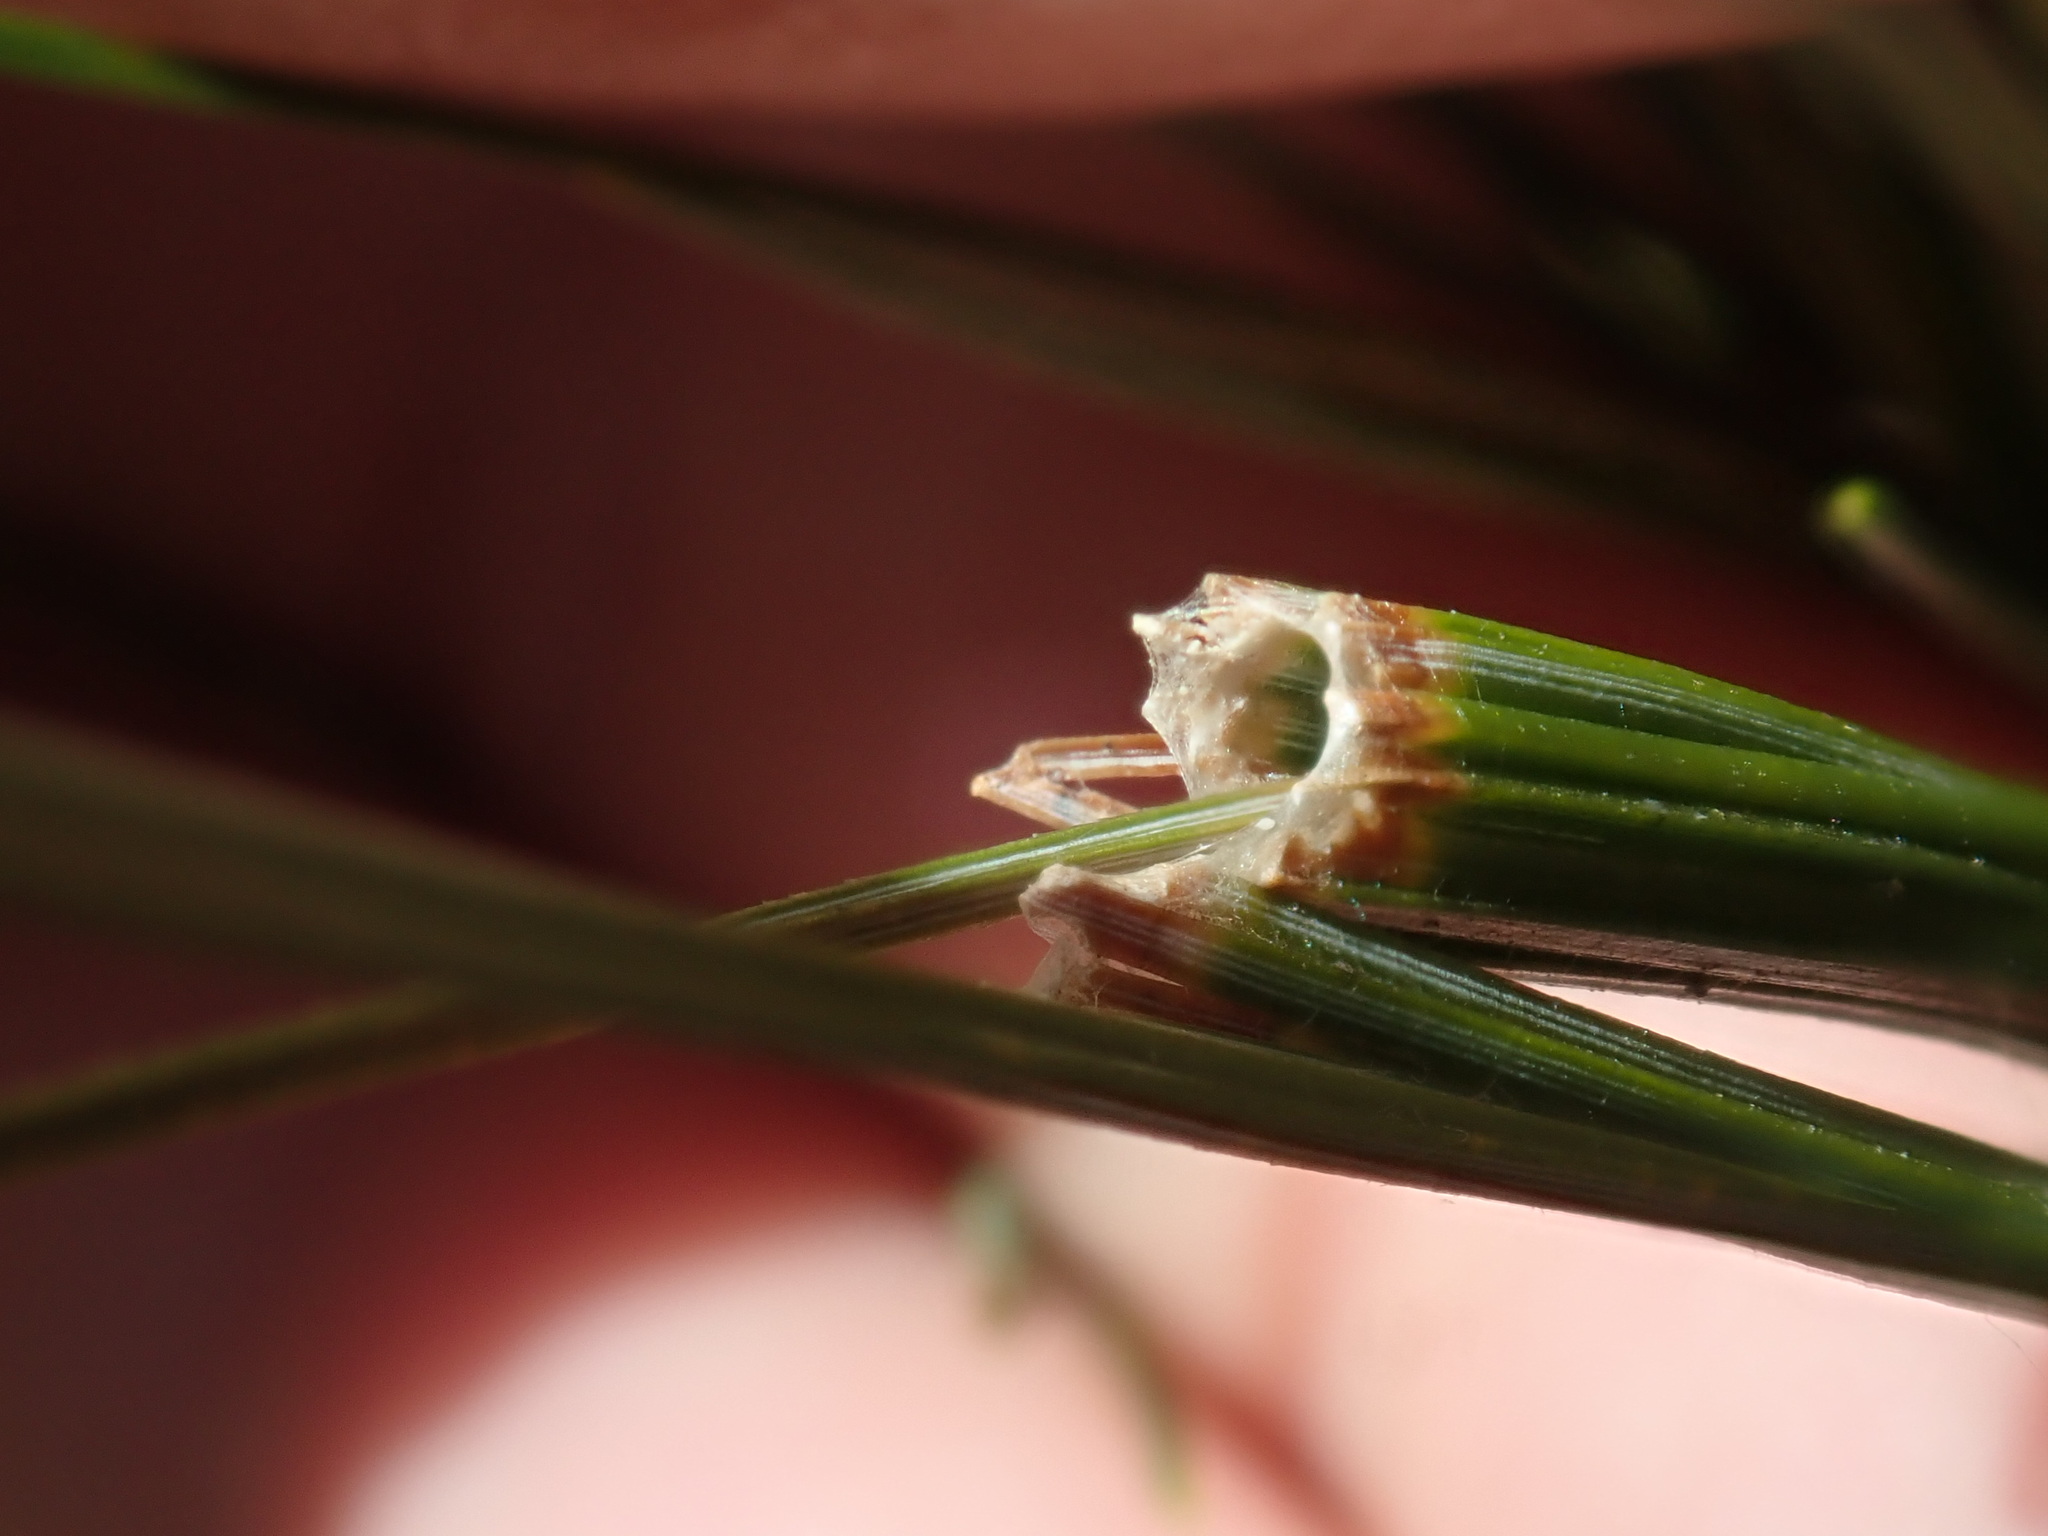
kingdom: Animalia
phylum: Arthropoda
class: Insecta
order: Lepidoptera
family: Tortricidae
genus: Argyrotaenia
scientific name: Argyrotaenia pinatubana
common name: Pine tube moth
